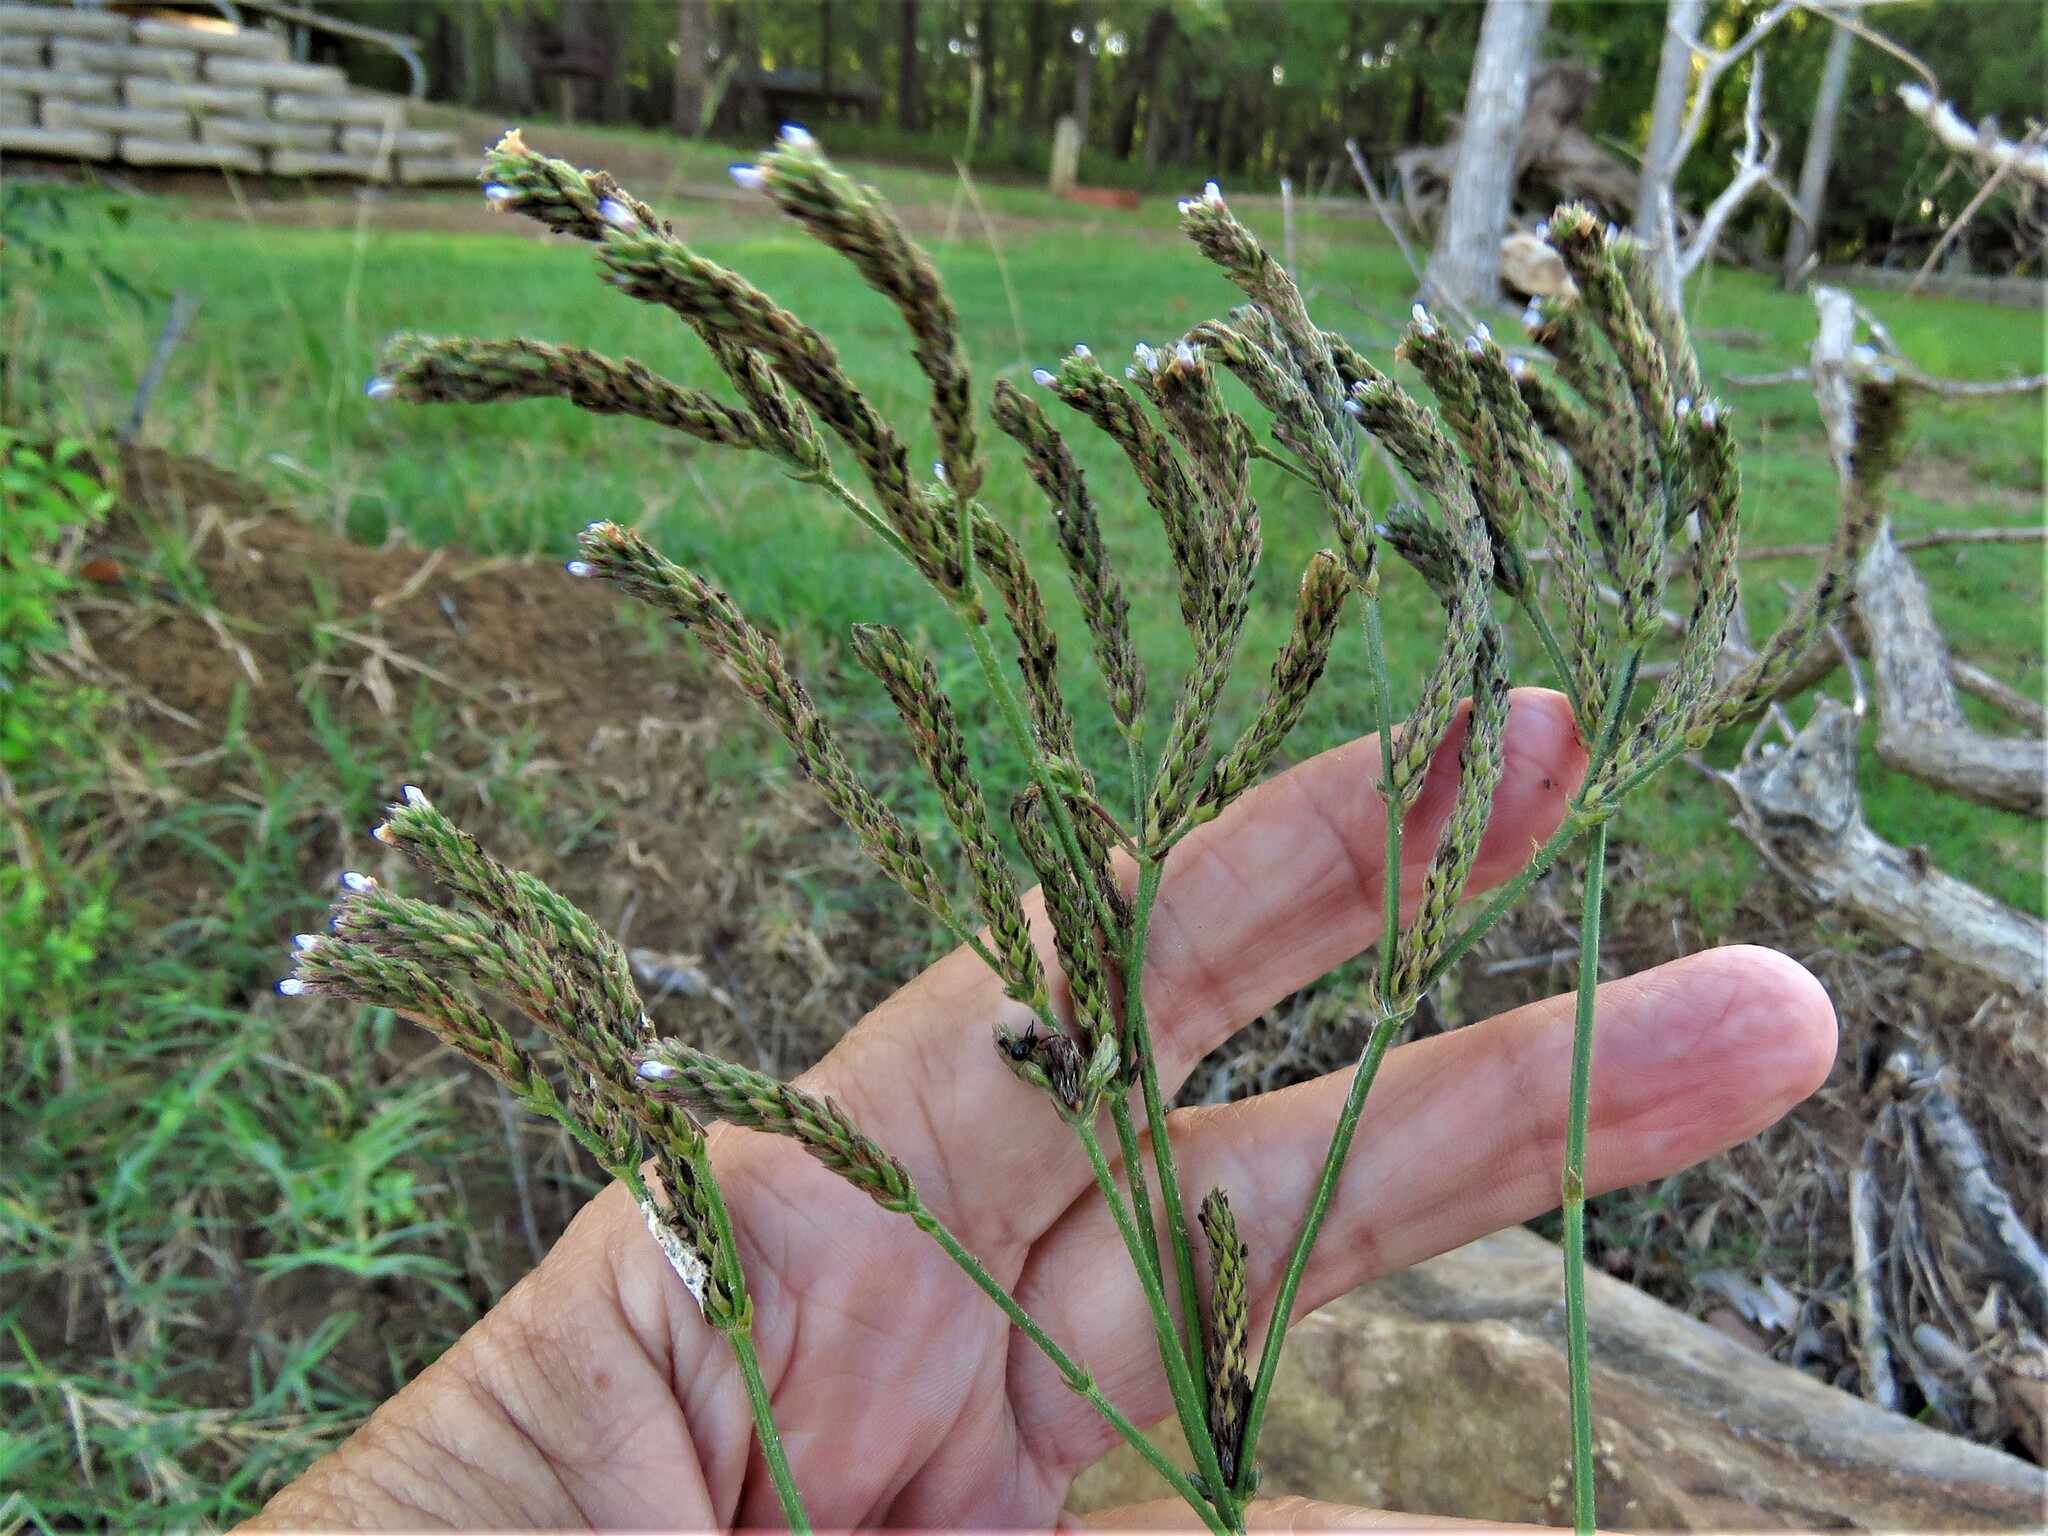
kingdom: Plantae
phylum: Tracheophyta
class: Magnoliopsida
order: Lamiales
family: Verbenaceae
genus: Verbena
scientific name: Verbena brasiliensis
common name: Brazilian vervain
